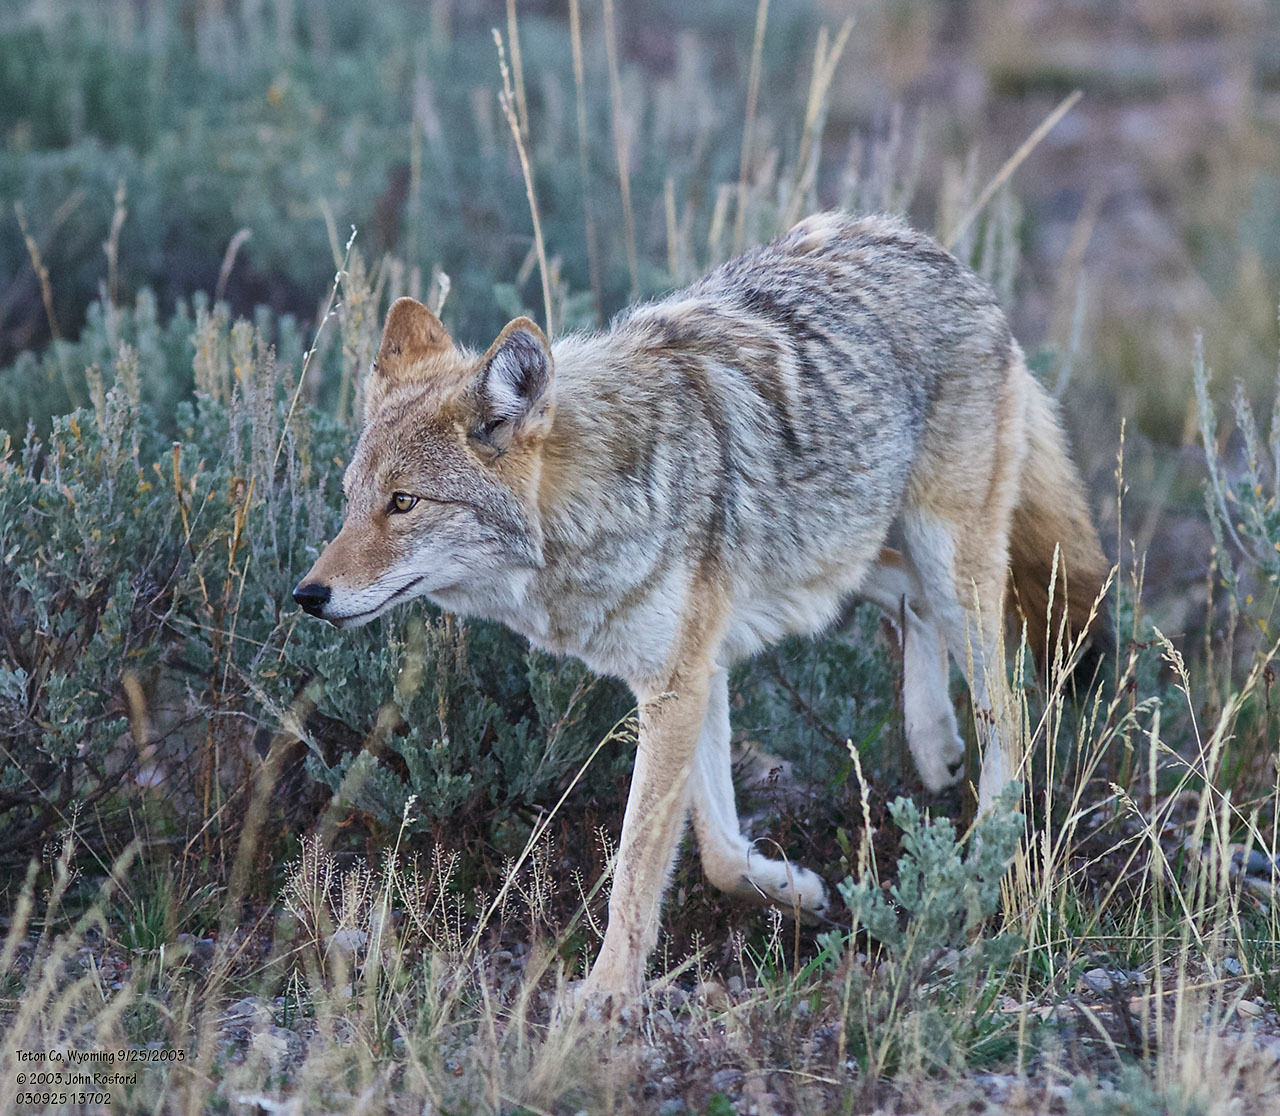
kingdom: Animalia
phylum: Chordata
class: Mammalia
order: Carnivora
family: Canidae
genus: Canis
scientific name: Canis latrans
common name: Coyote
